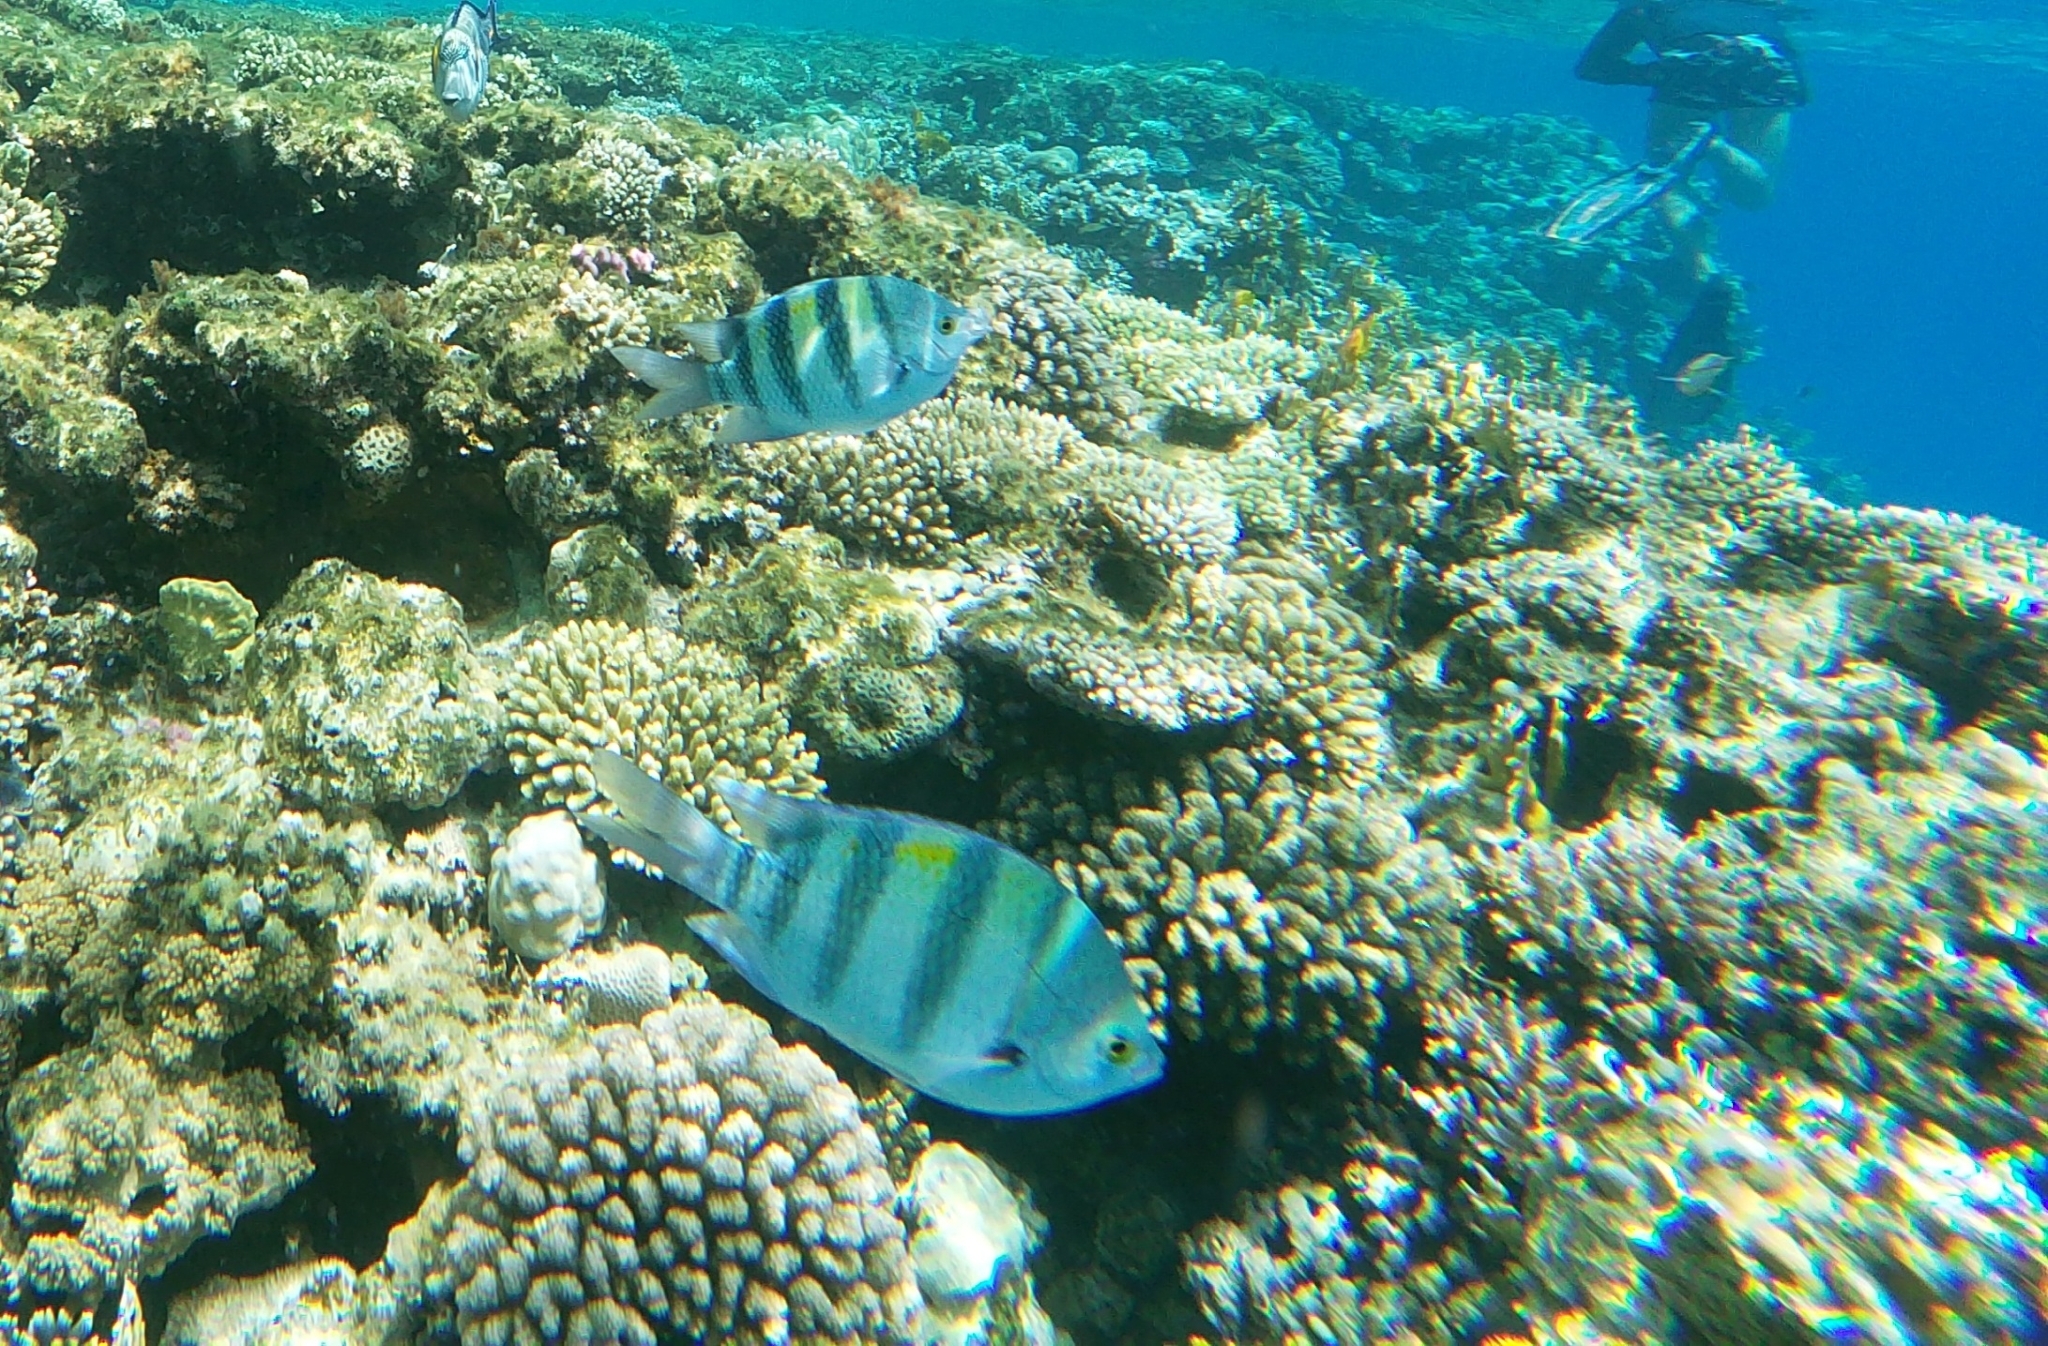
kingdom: Animalia
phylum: Chordata
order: Perciformes
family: Pomacentridae
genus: Abudefduf
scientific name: Abudefduf vaigiensis
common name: Indo-pacific sergeant
